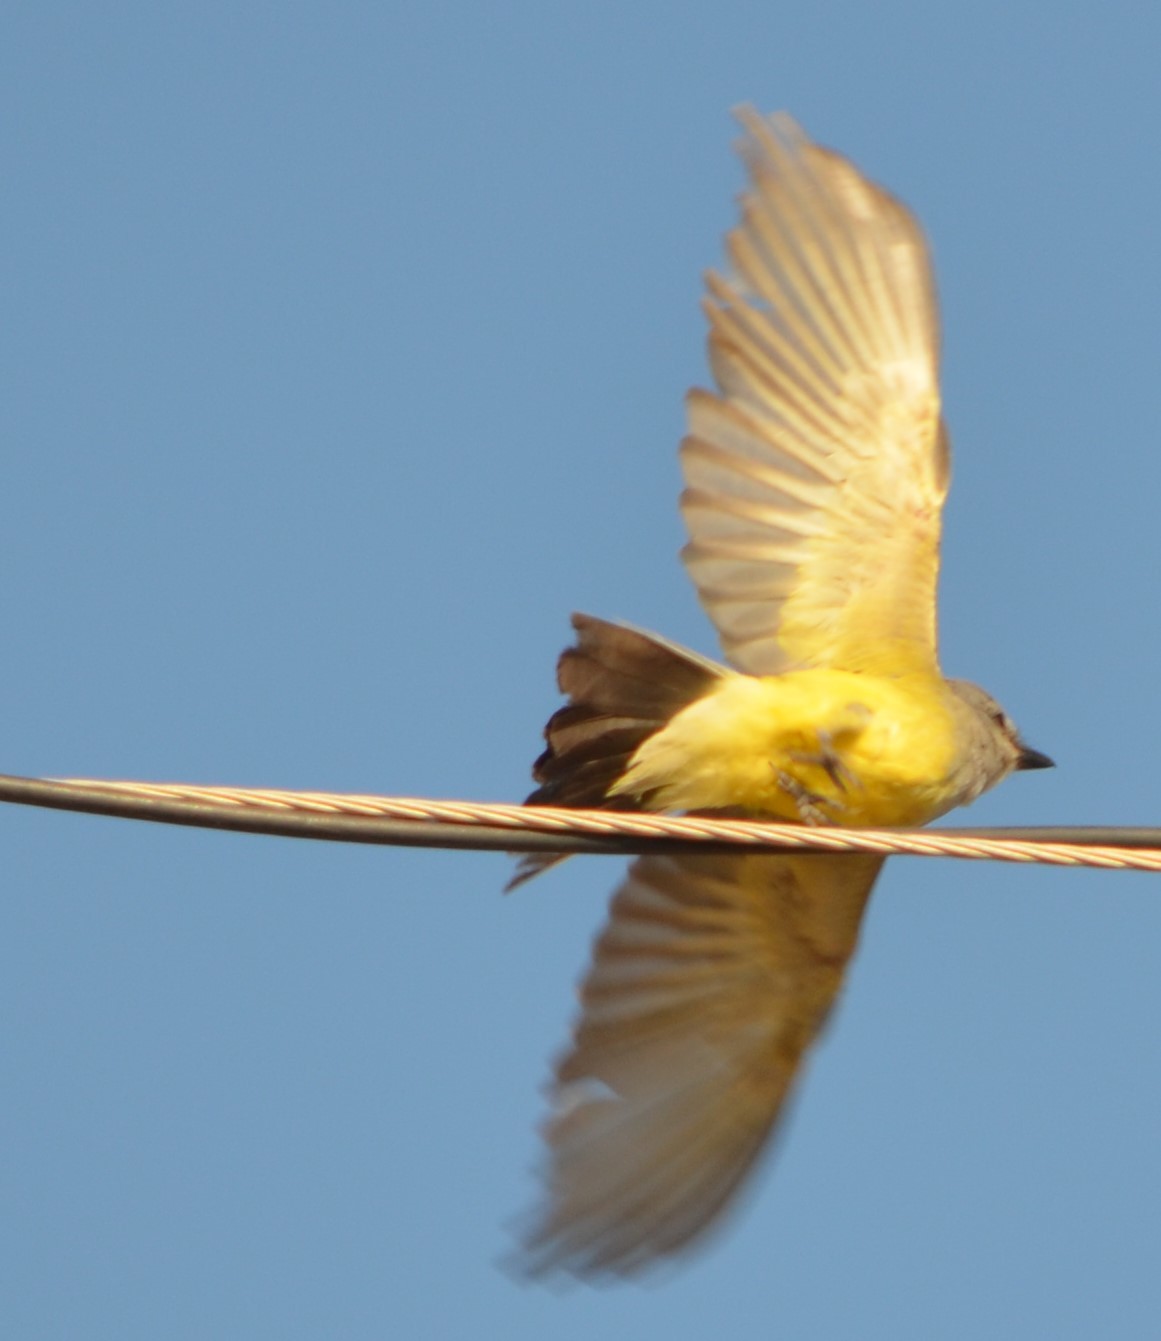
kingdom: Animalia
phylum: Chordata
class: Aves
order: Passeriformes
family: Tyrannidae
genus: Tyrannus
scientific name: Tyrannus verticalis
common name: Western kingbird
